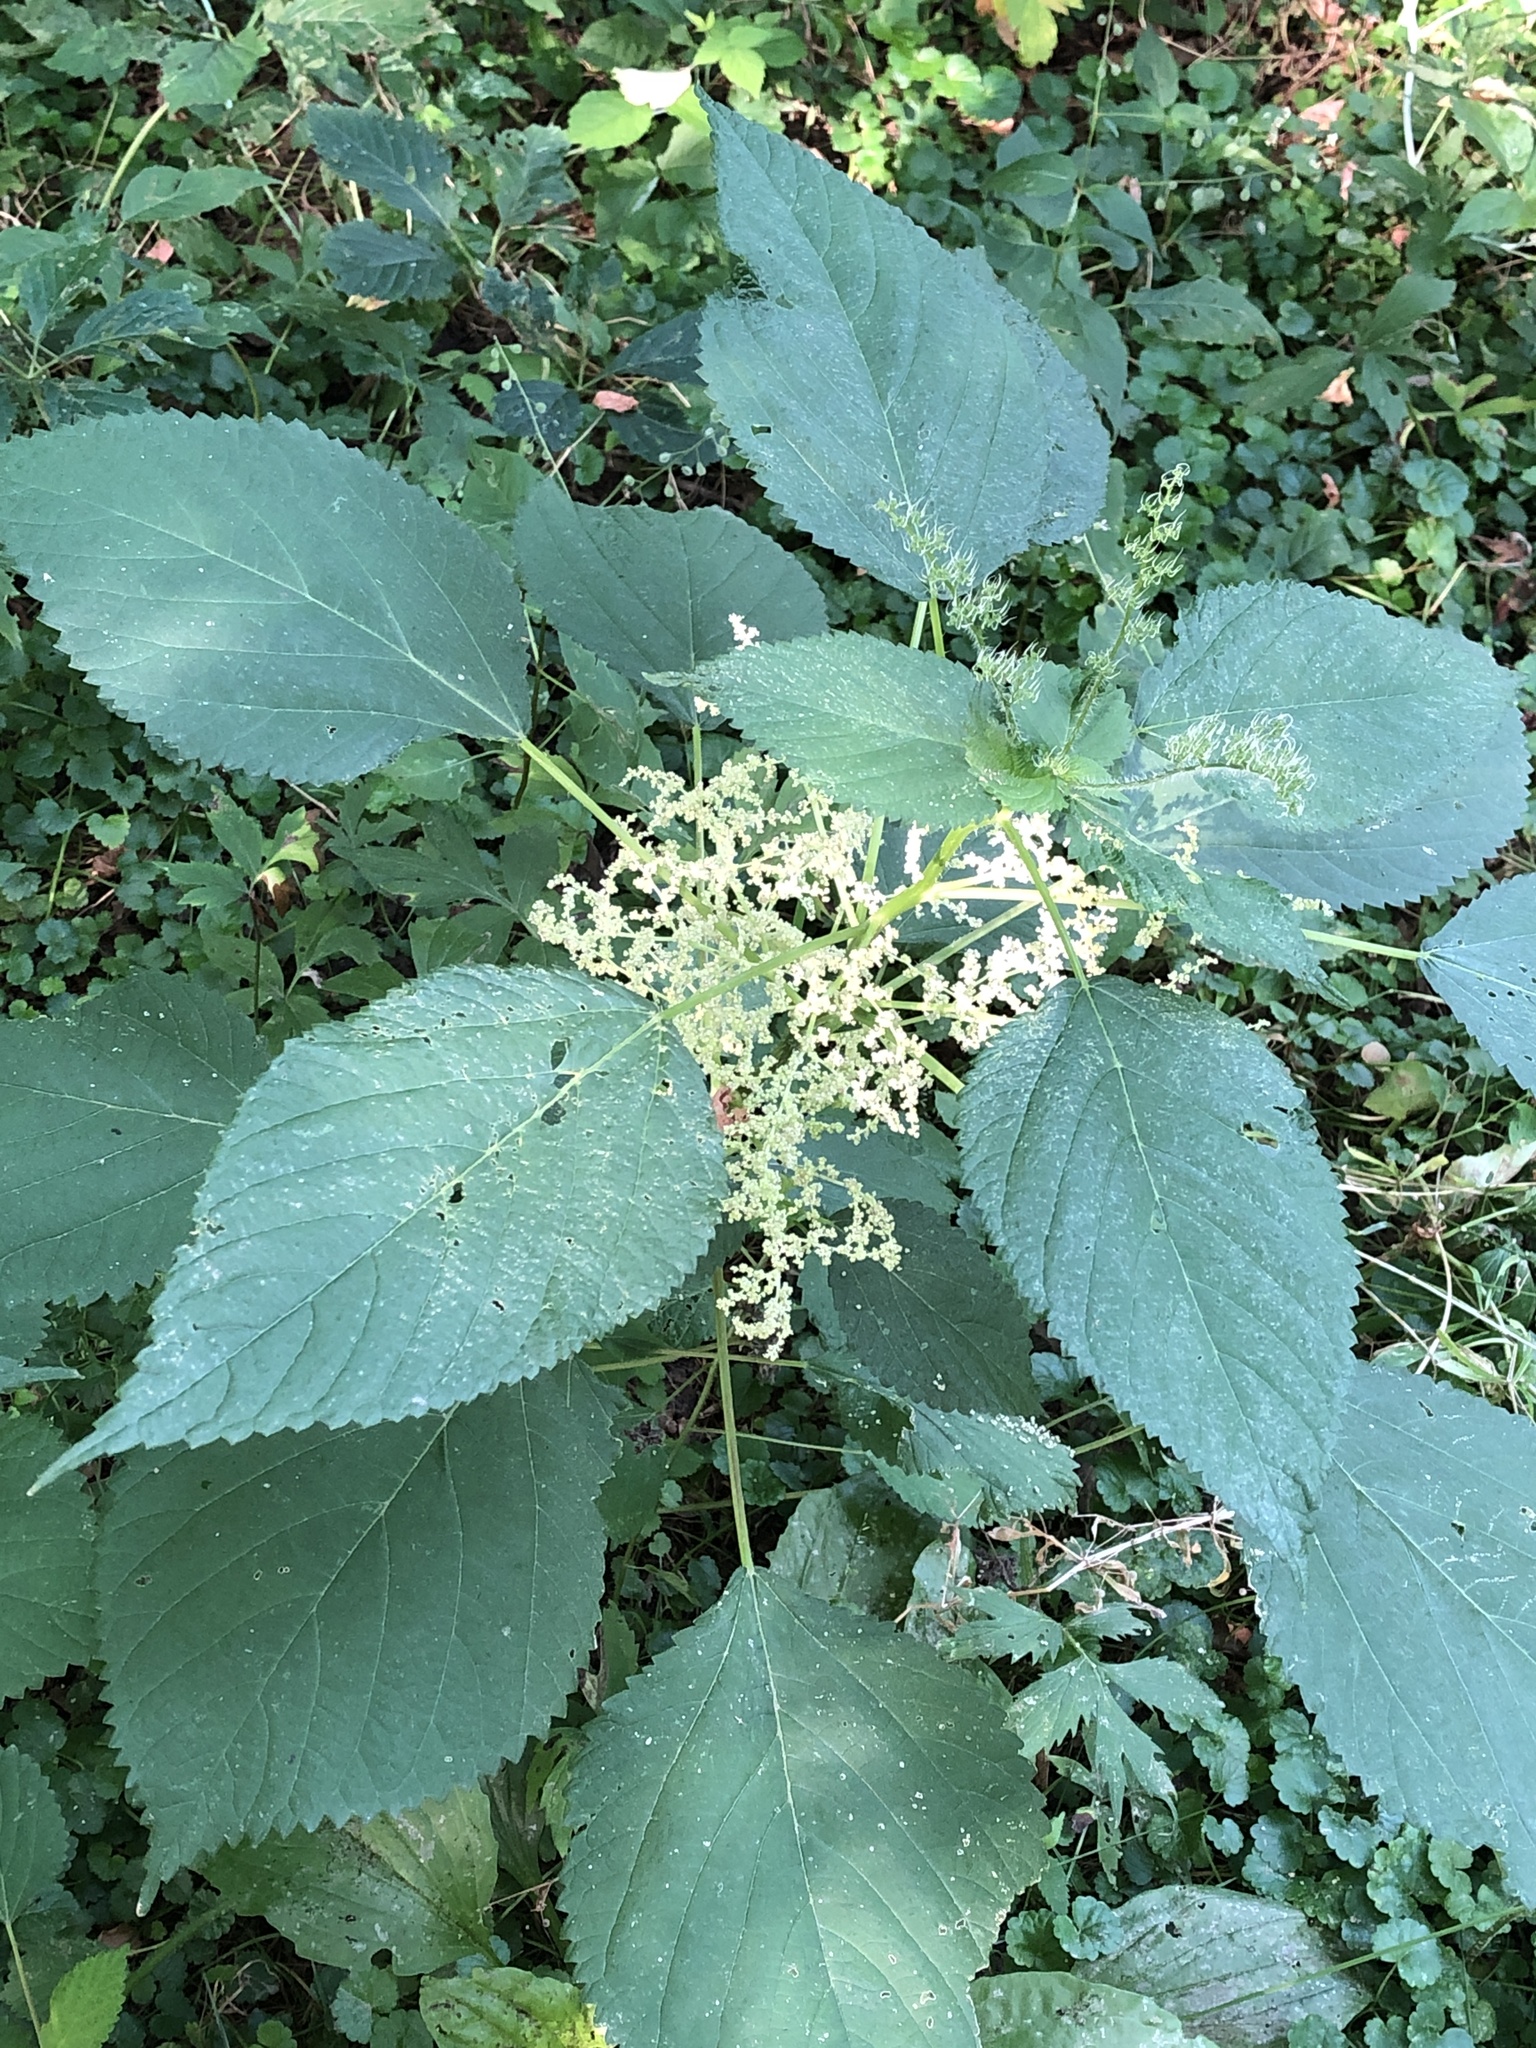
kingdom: Plantae
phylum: Tracheophyta
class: Magnoliopsida
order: Rosales
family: Urticaceae
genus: Laportea
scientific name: Laportea canadensis
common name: Canada nettle
